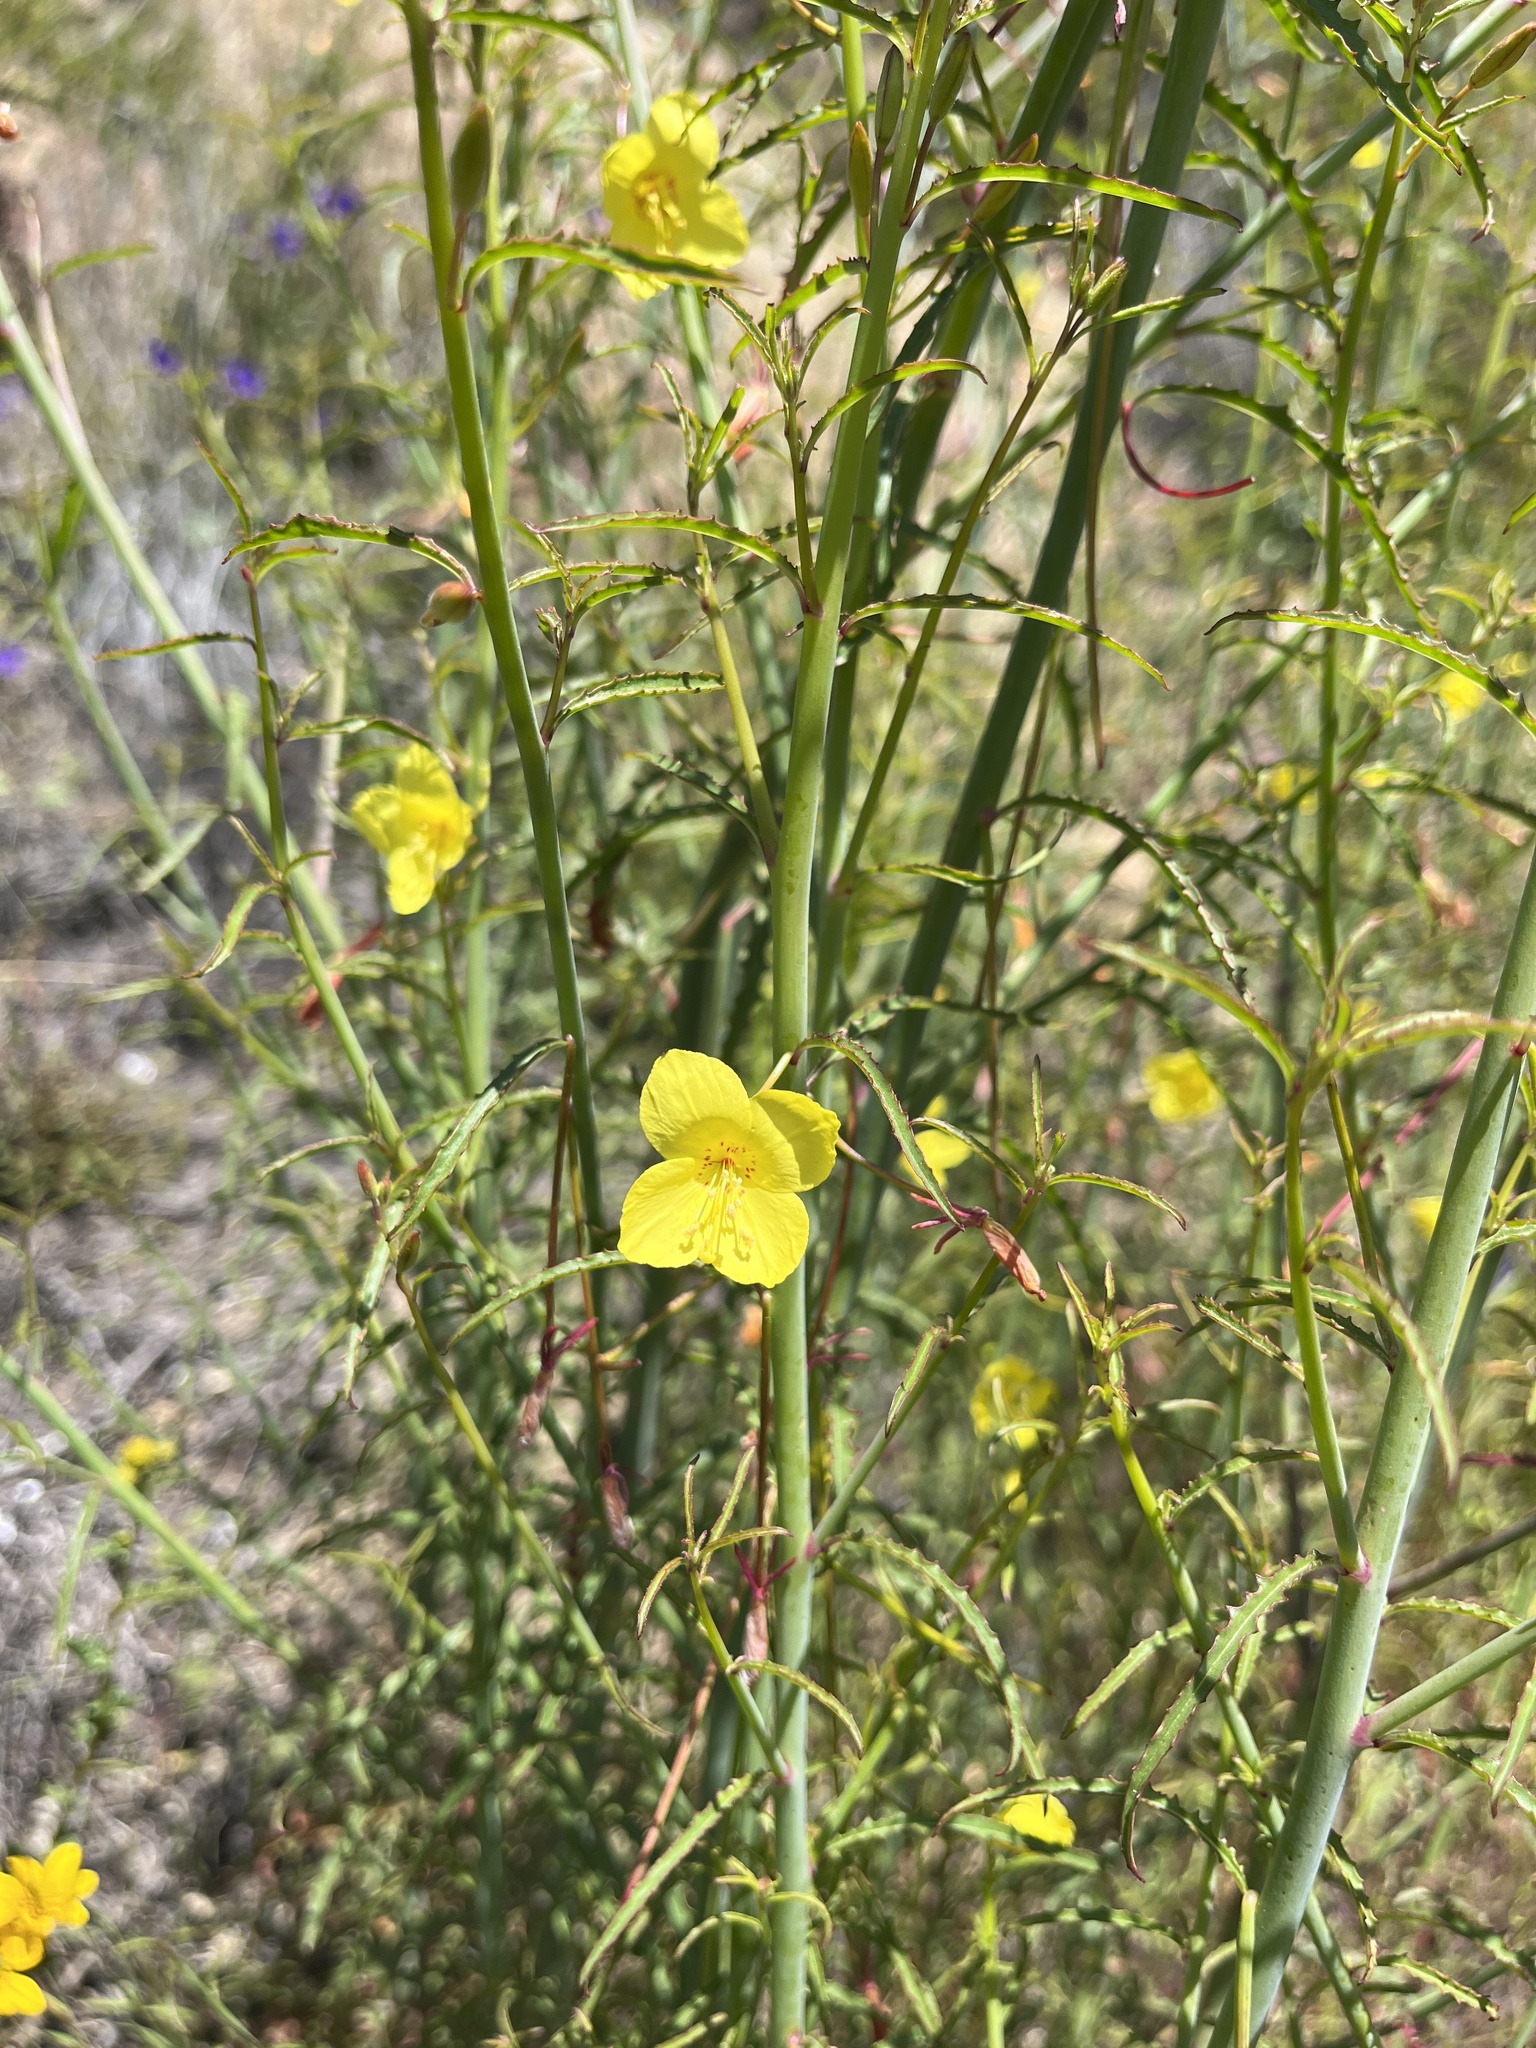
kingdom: Plantae
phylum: Tracheophyta
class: Magnoliopsida
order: Myrtales
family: Onagraceae
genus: Eulobus
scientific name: Eulobus californicus
